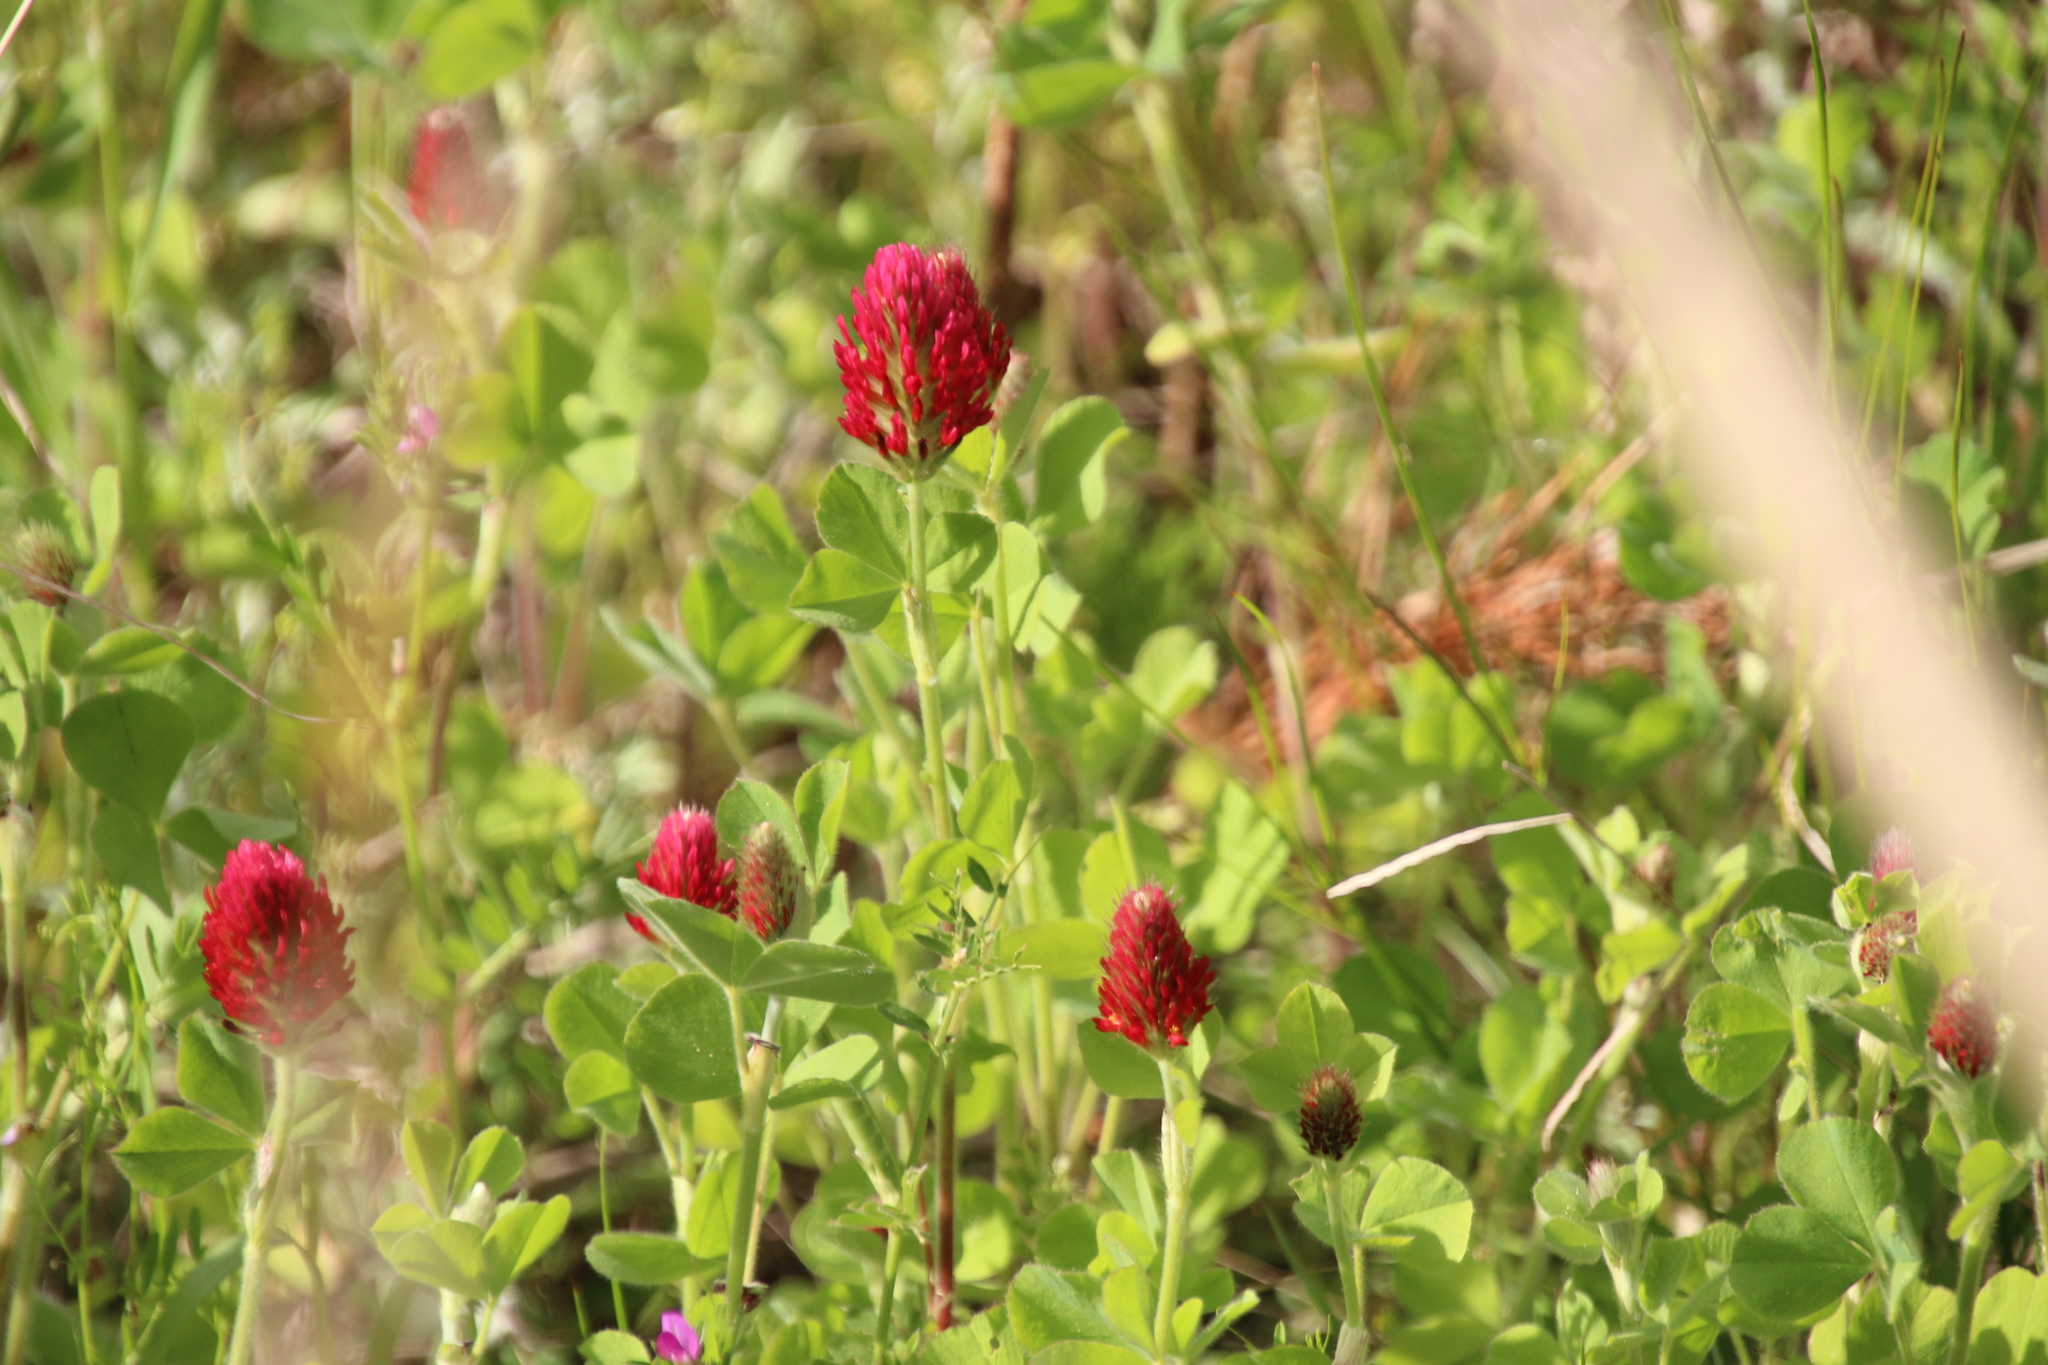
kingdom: Plantae
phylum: Tracheophyta
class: Magnoliopsida
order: Fabales
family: Fabaceae
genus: Trifolium
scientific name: Trifolium incarnatum
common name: Crimson clover
